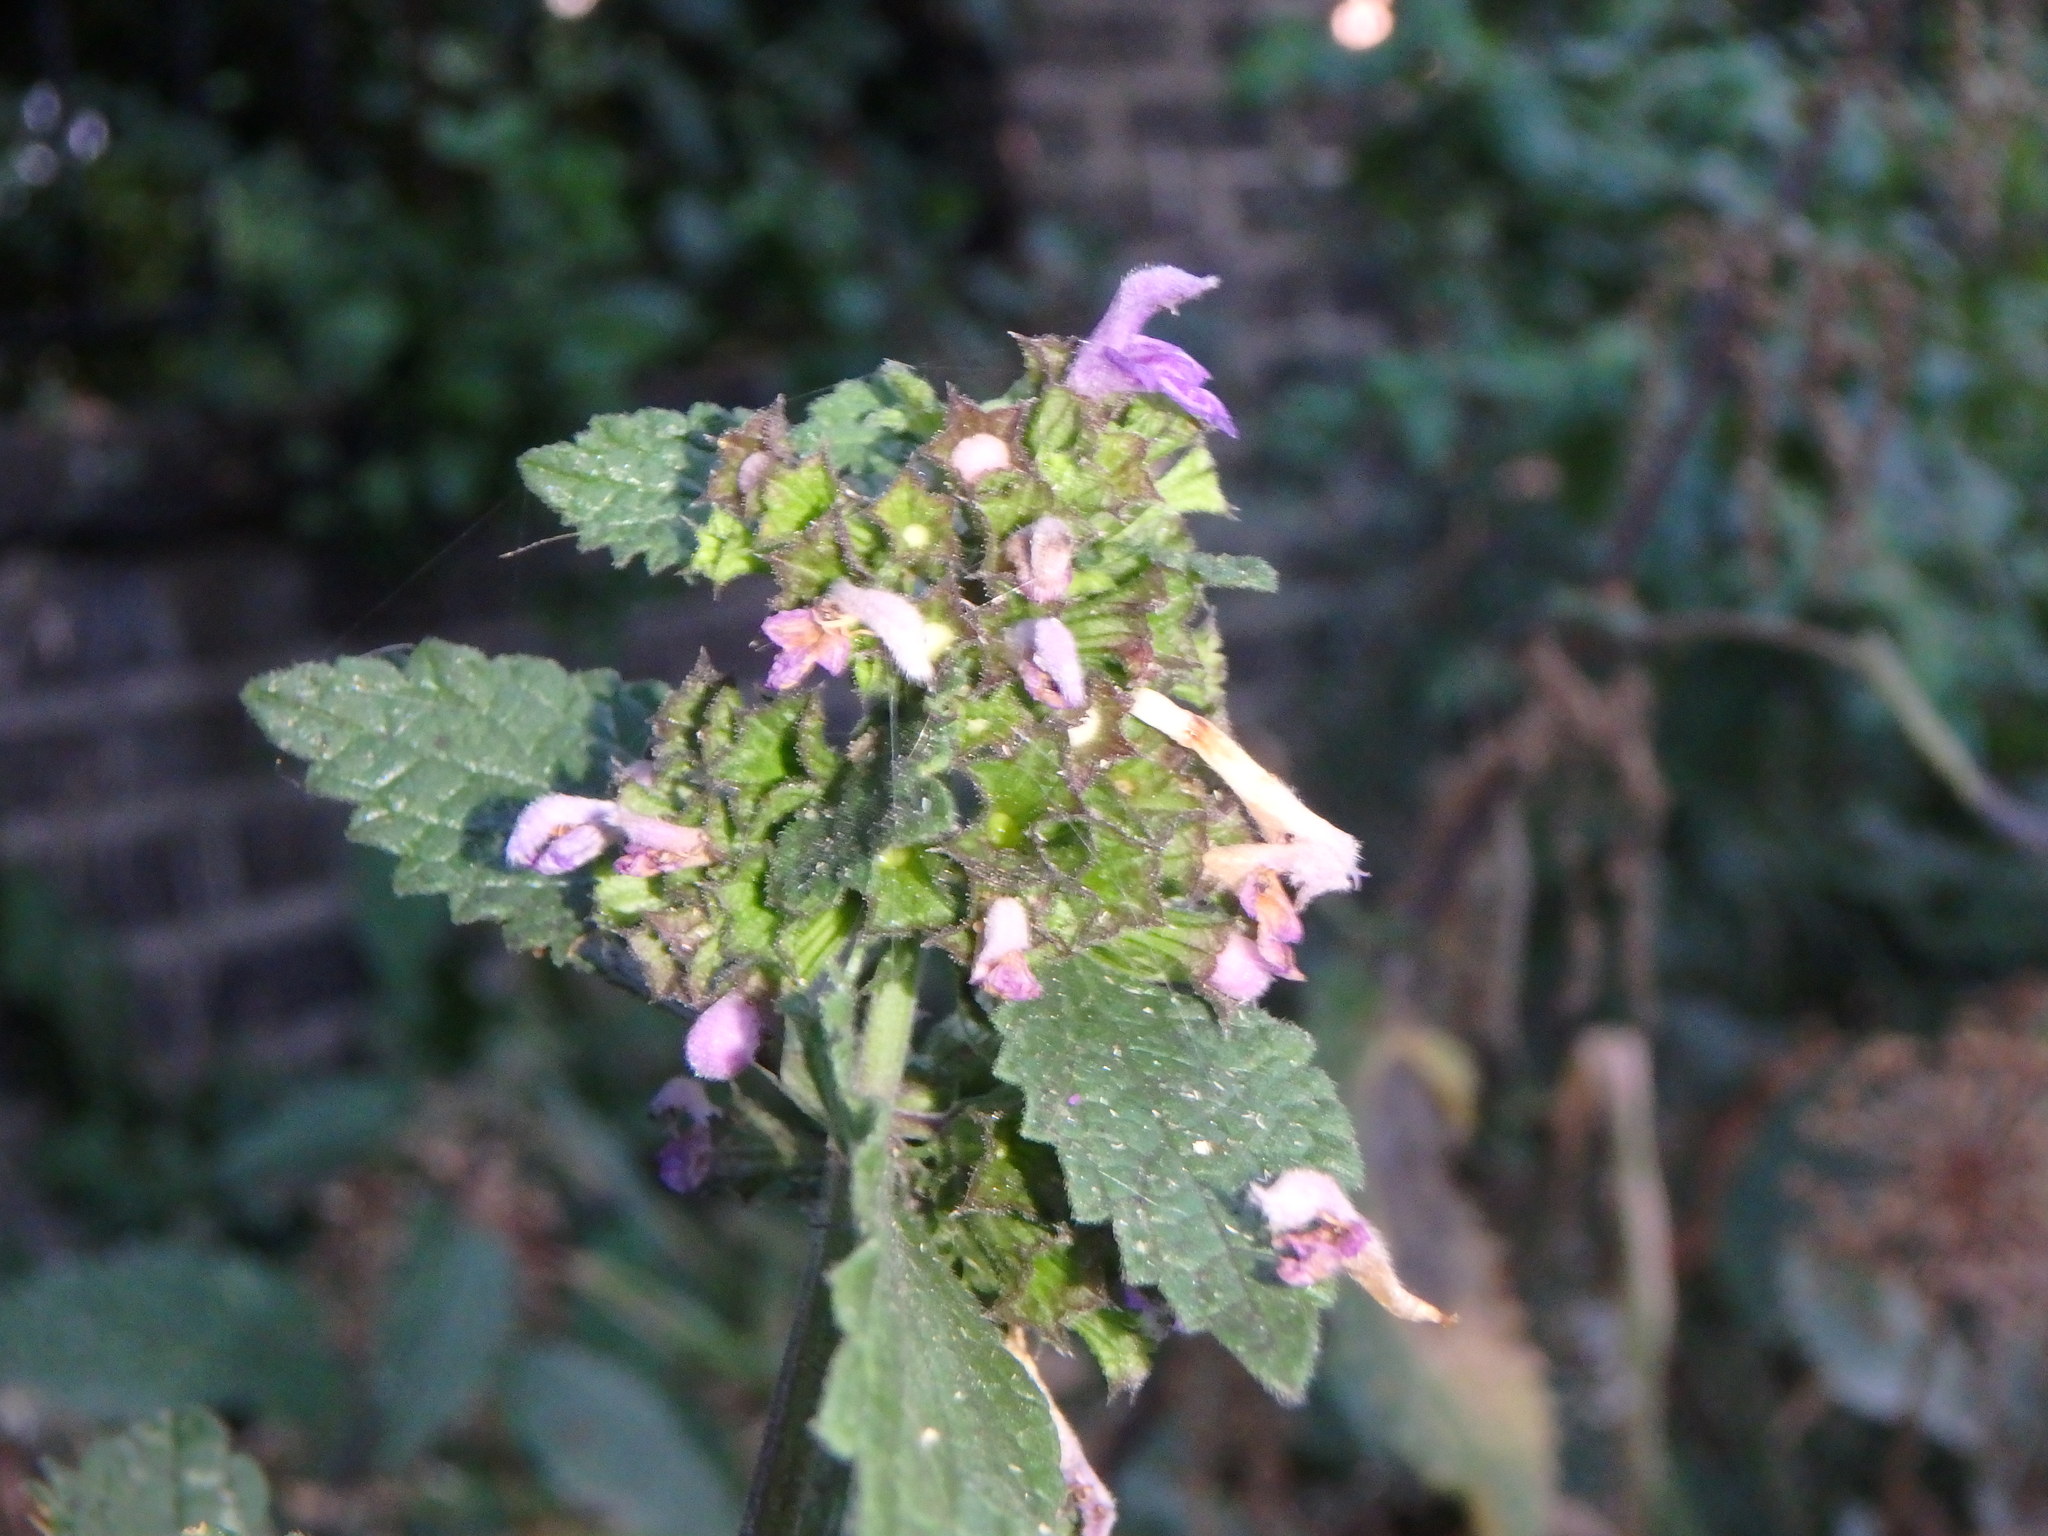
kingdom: Plantae
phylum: Tracheophyta
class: Magnoliopsida
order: Lamiales
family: Lamiaceae
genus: Ballota
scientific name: Ballota nigra
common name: Black horehound
